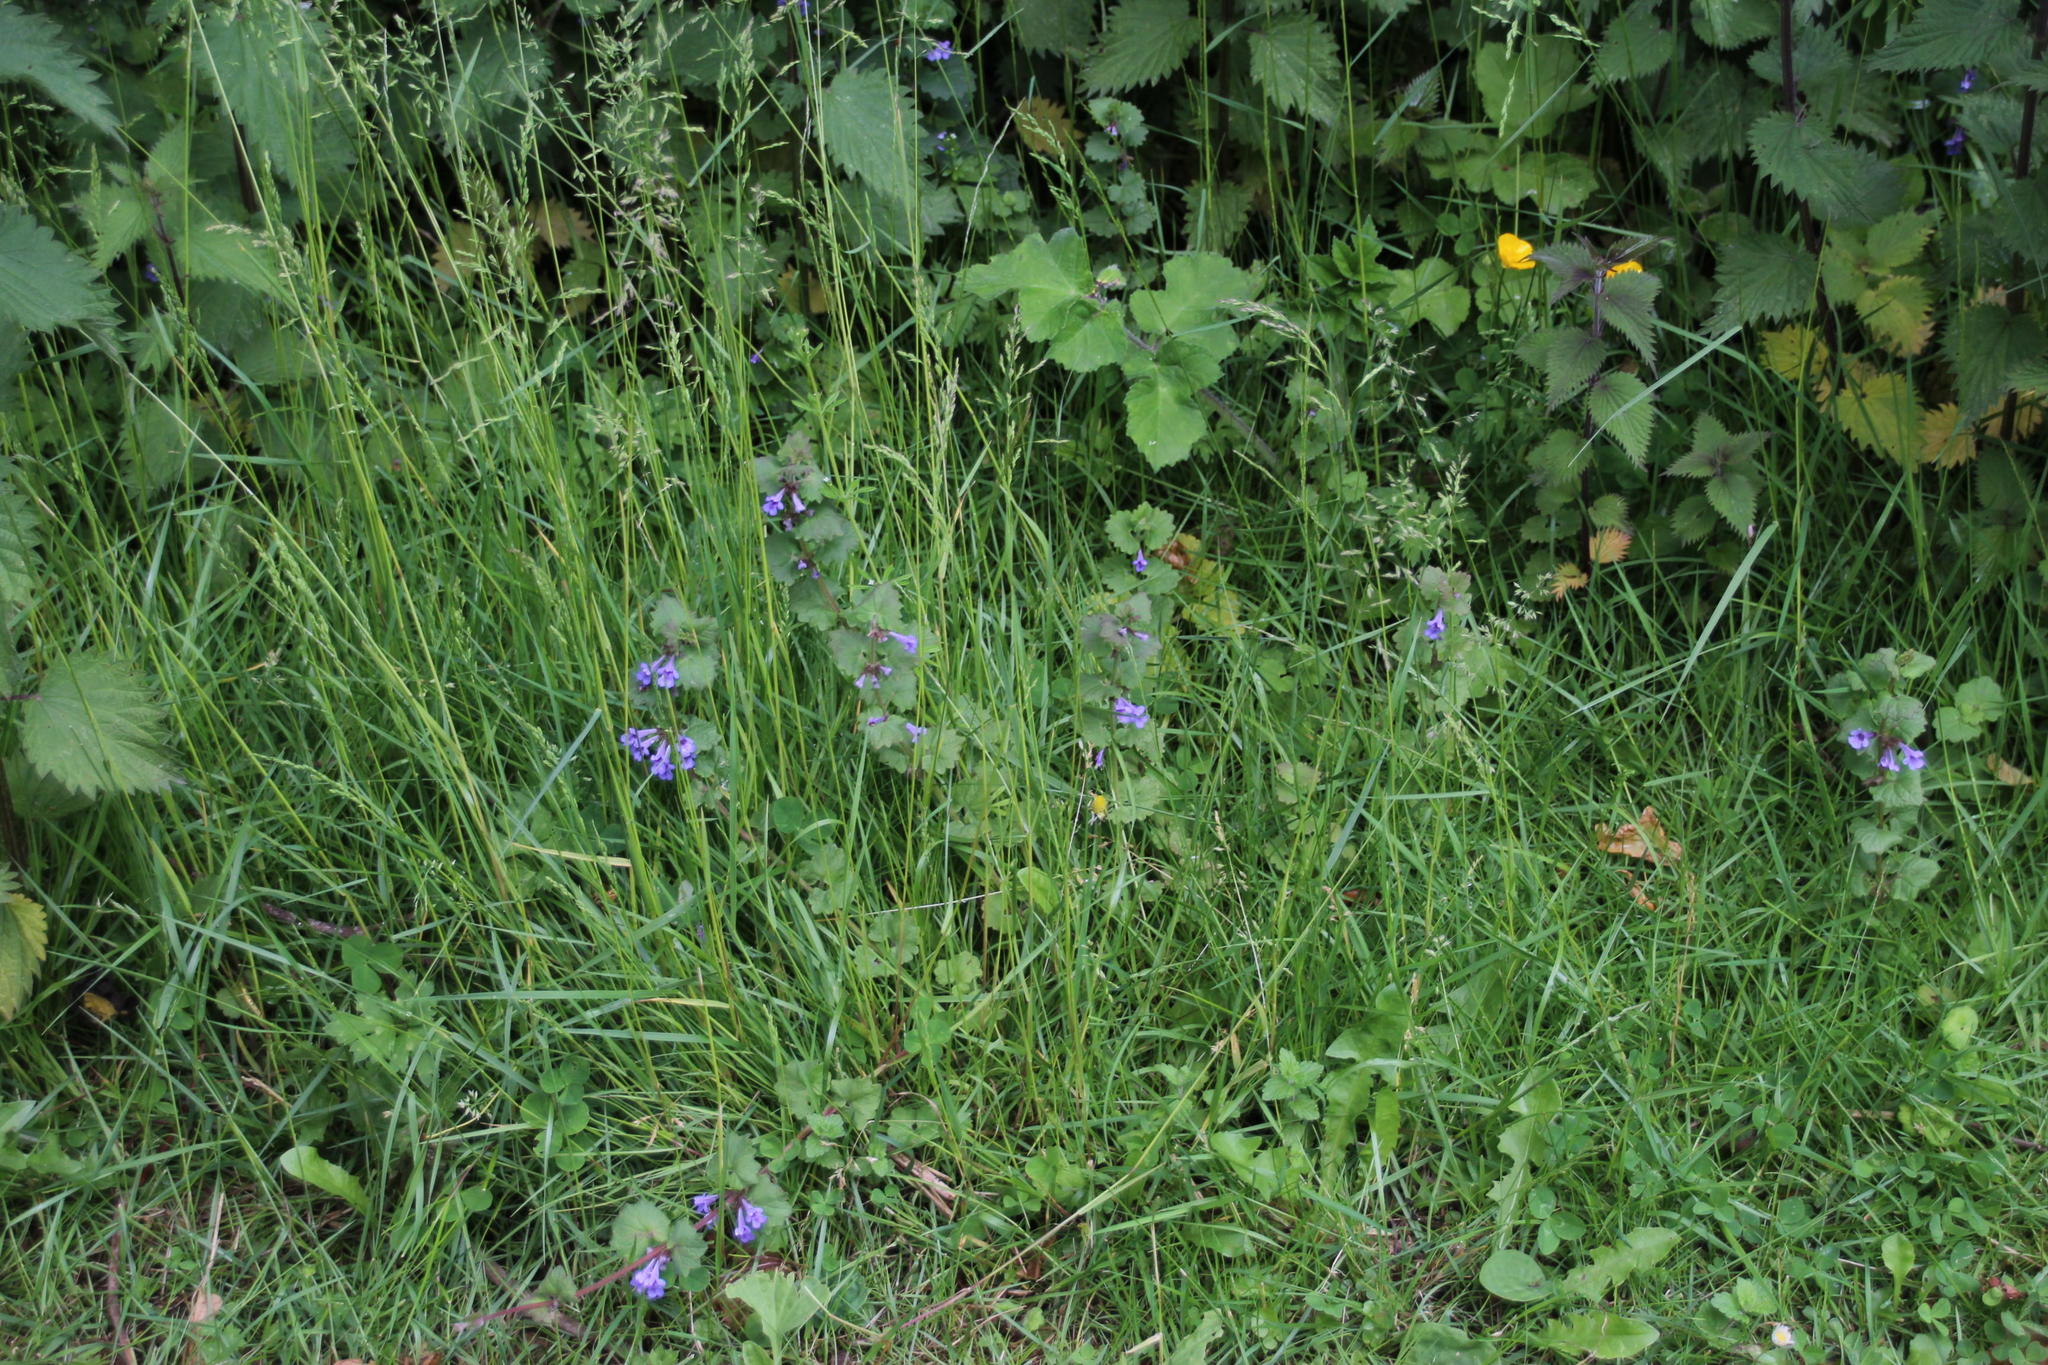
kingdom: Plantae
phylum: Tracheophyta
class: Magnoliopsida
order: Lamiales
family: Lamiaceae
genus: Glechoma
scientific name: Glechoma hederacea
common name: Ground ivy
